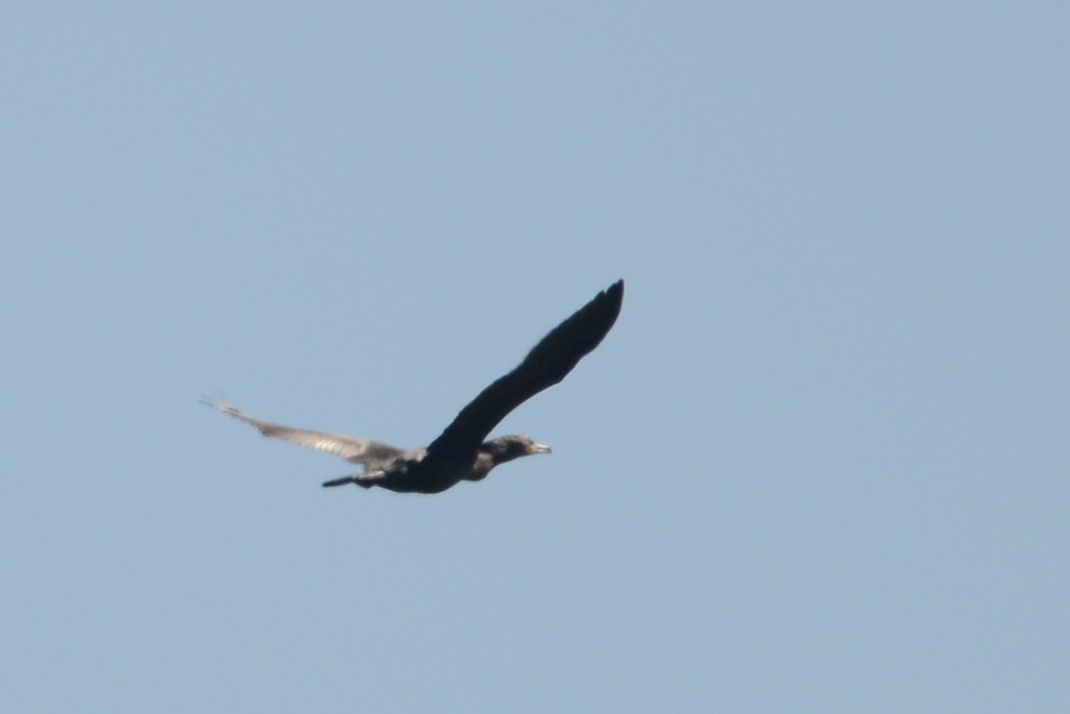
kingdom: Animalia
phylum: Chordata
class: Aves
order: Suliformes
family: Phalacrocoracidae
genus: Phalacrocorax
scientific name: Phalacrocorax carbo
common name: Great cormorant
